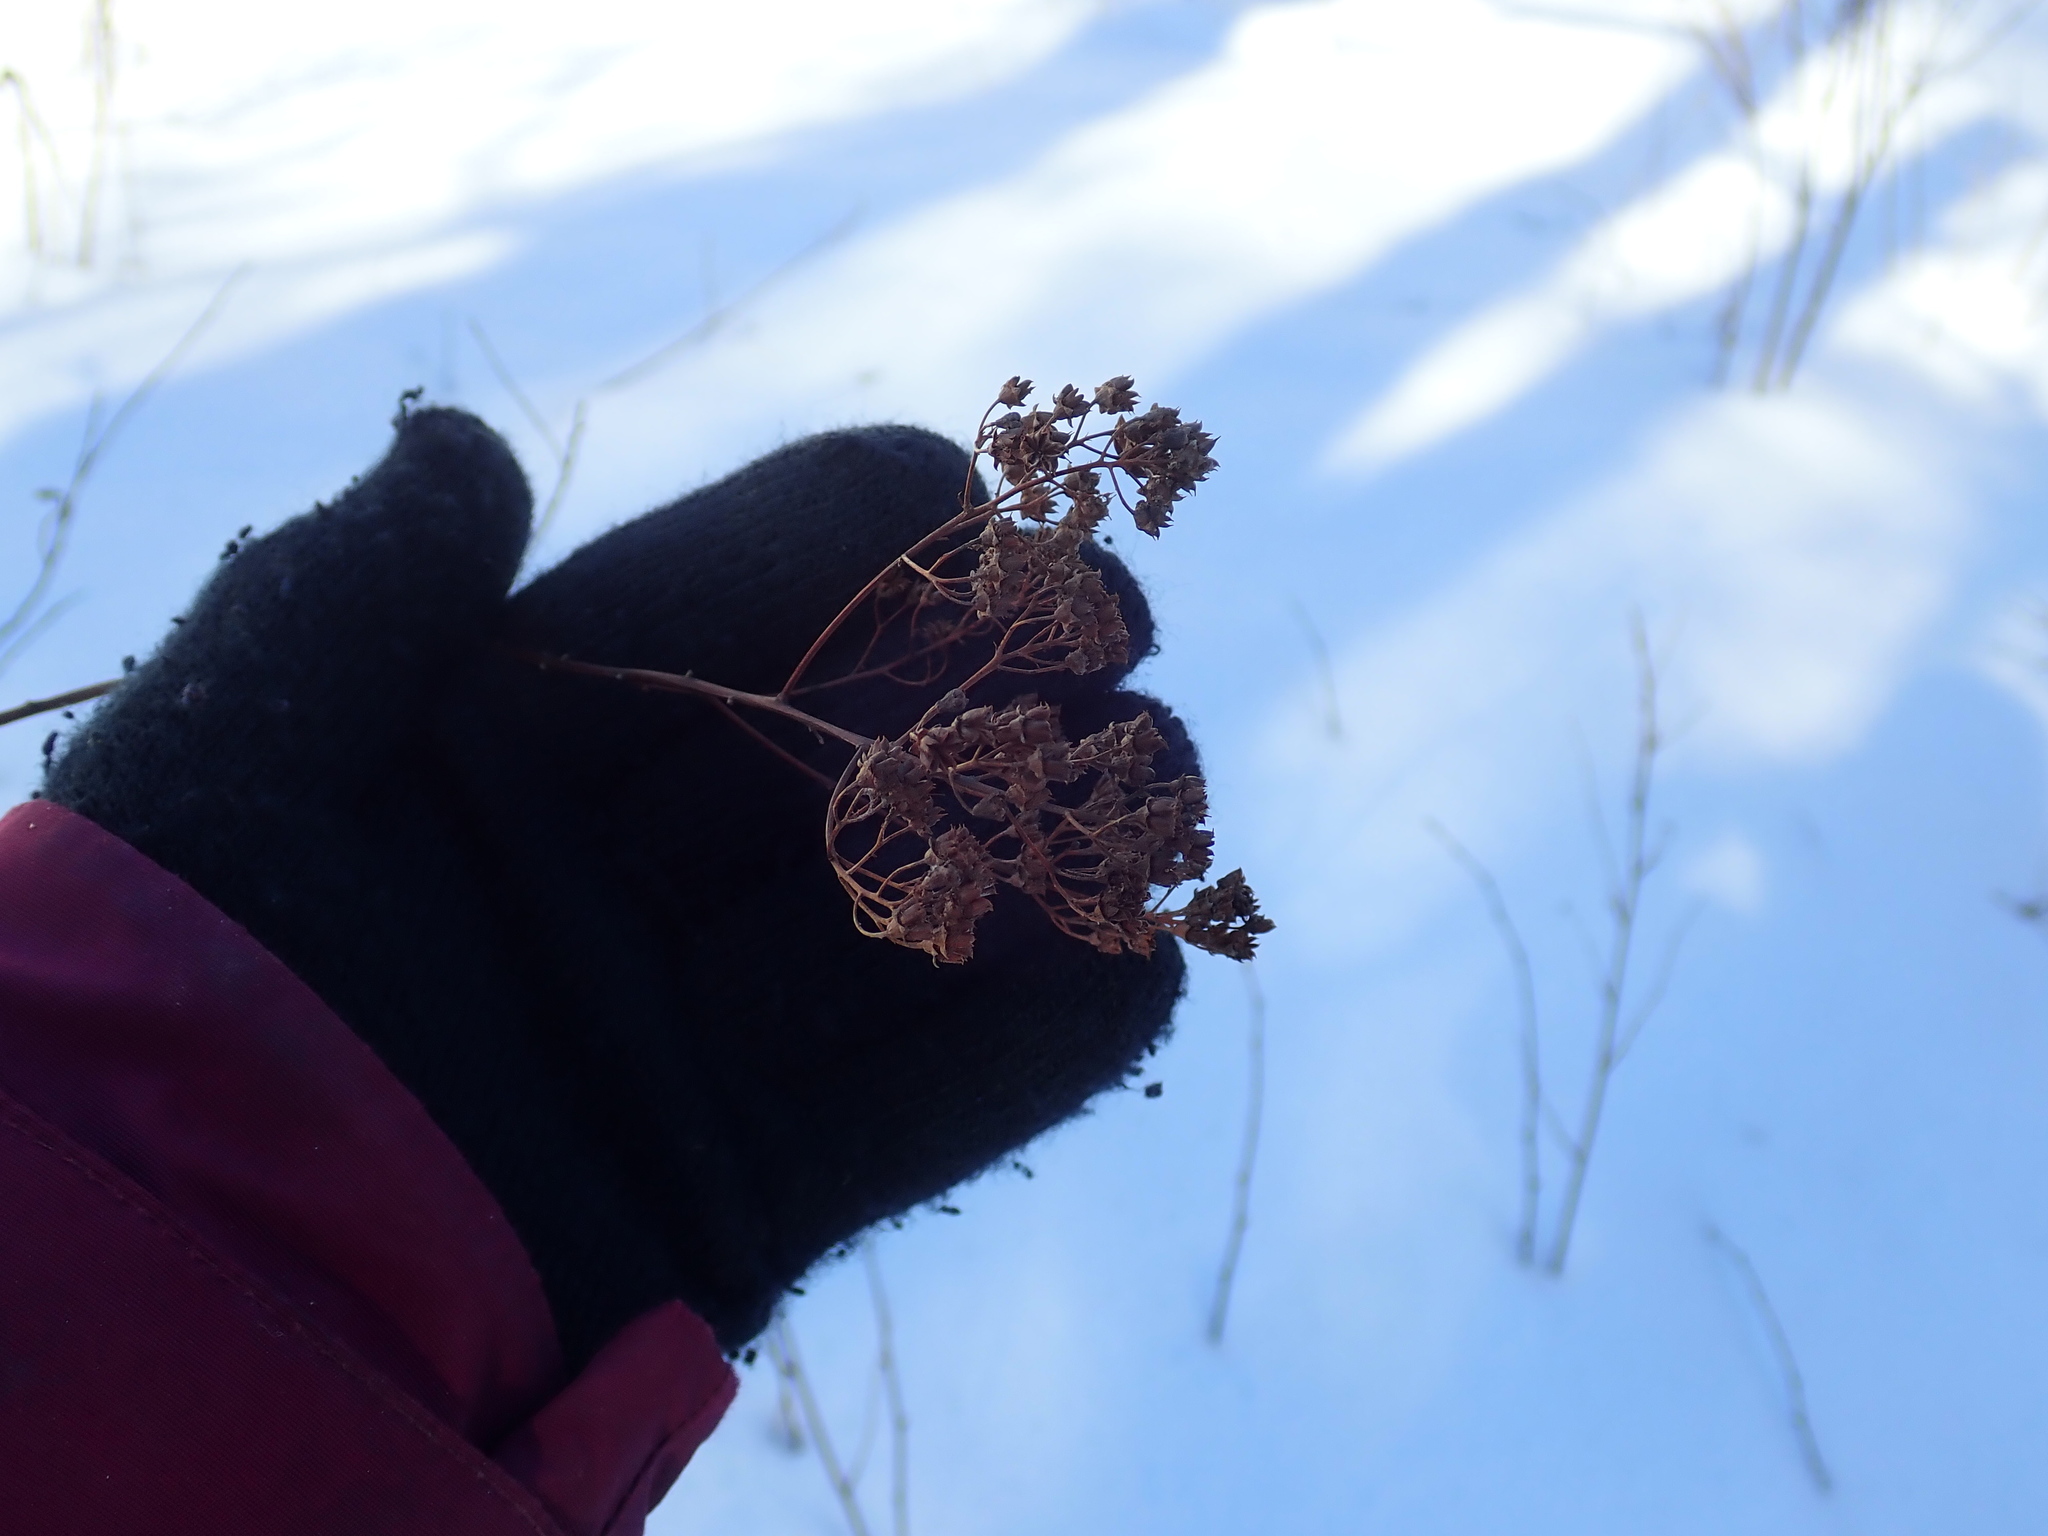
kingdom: Plantae
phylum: Tracheophyta
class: Magnoliopsida
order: Rosales
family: Rosaceae
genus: Spiraea
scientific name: Spiraea alba
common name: Pale bridewort
